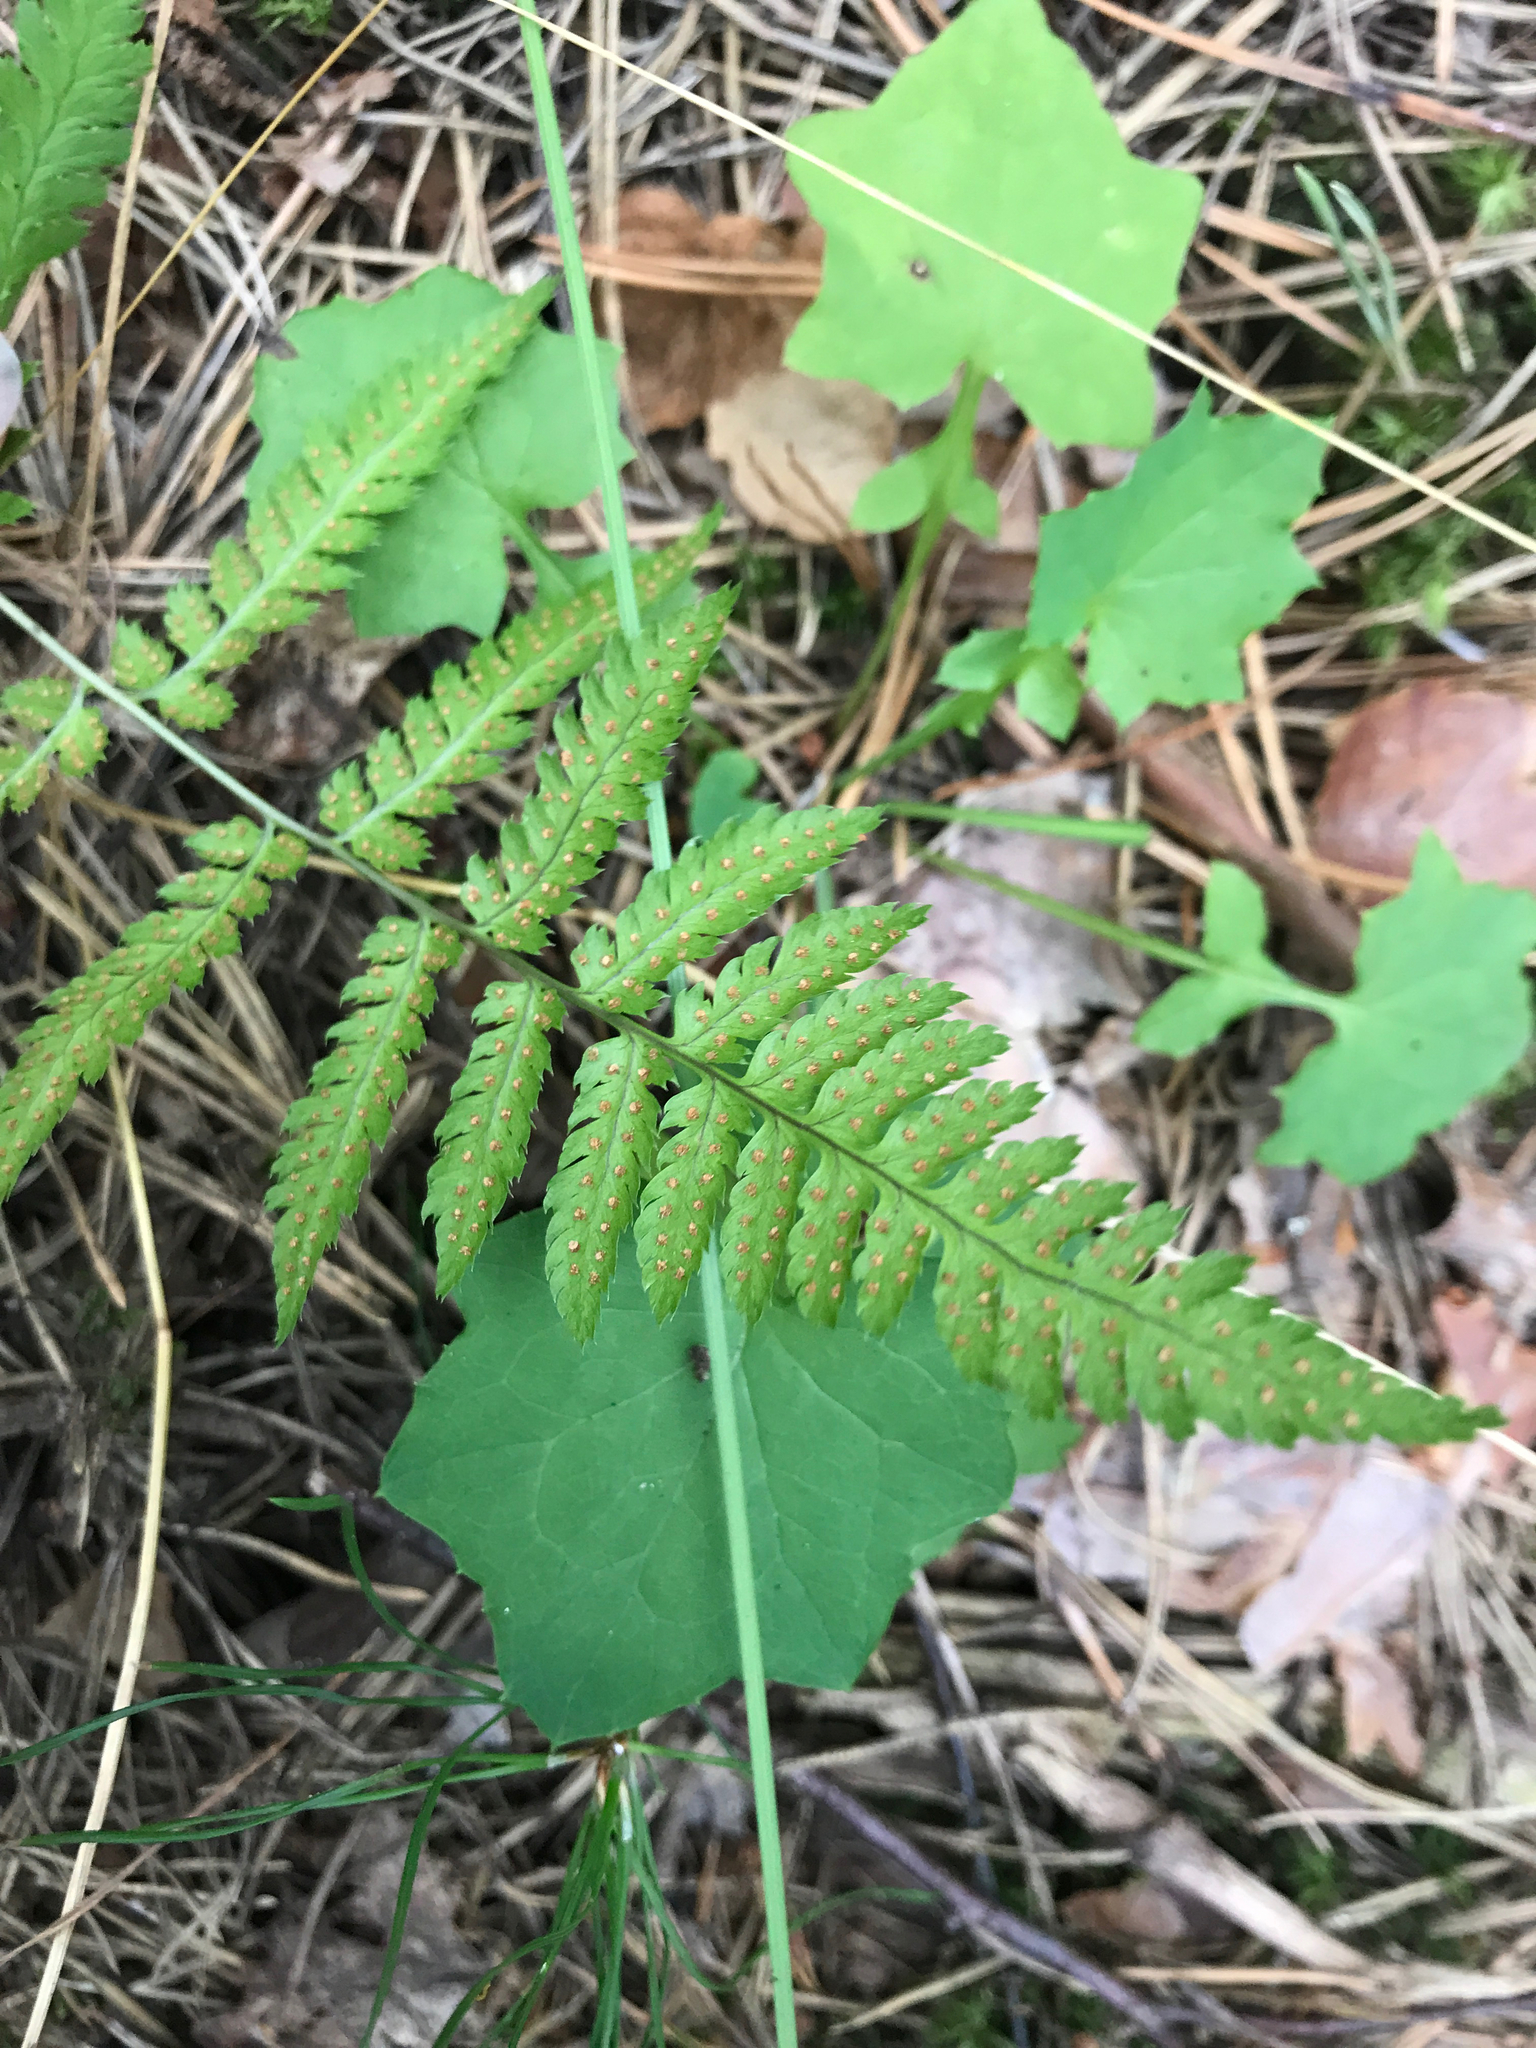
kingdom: Plantae
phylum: Tracheophyta
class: Polypodiopsida
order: Polypodiales
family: Dryopteridaceae
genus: Dryopteris
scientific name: Dryopteris carthusiana
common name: Narrow buckler-fern
